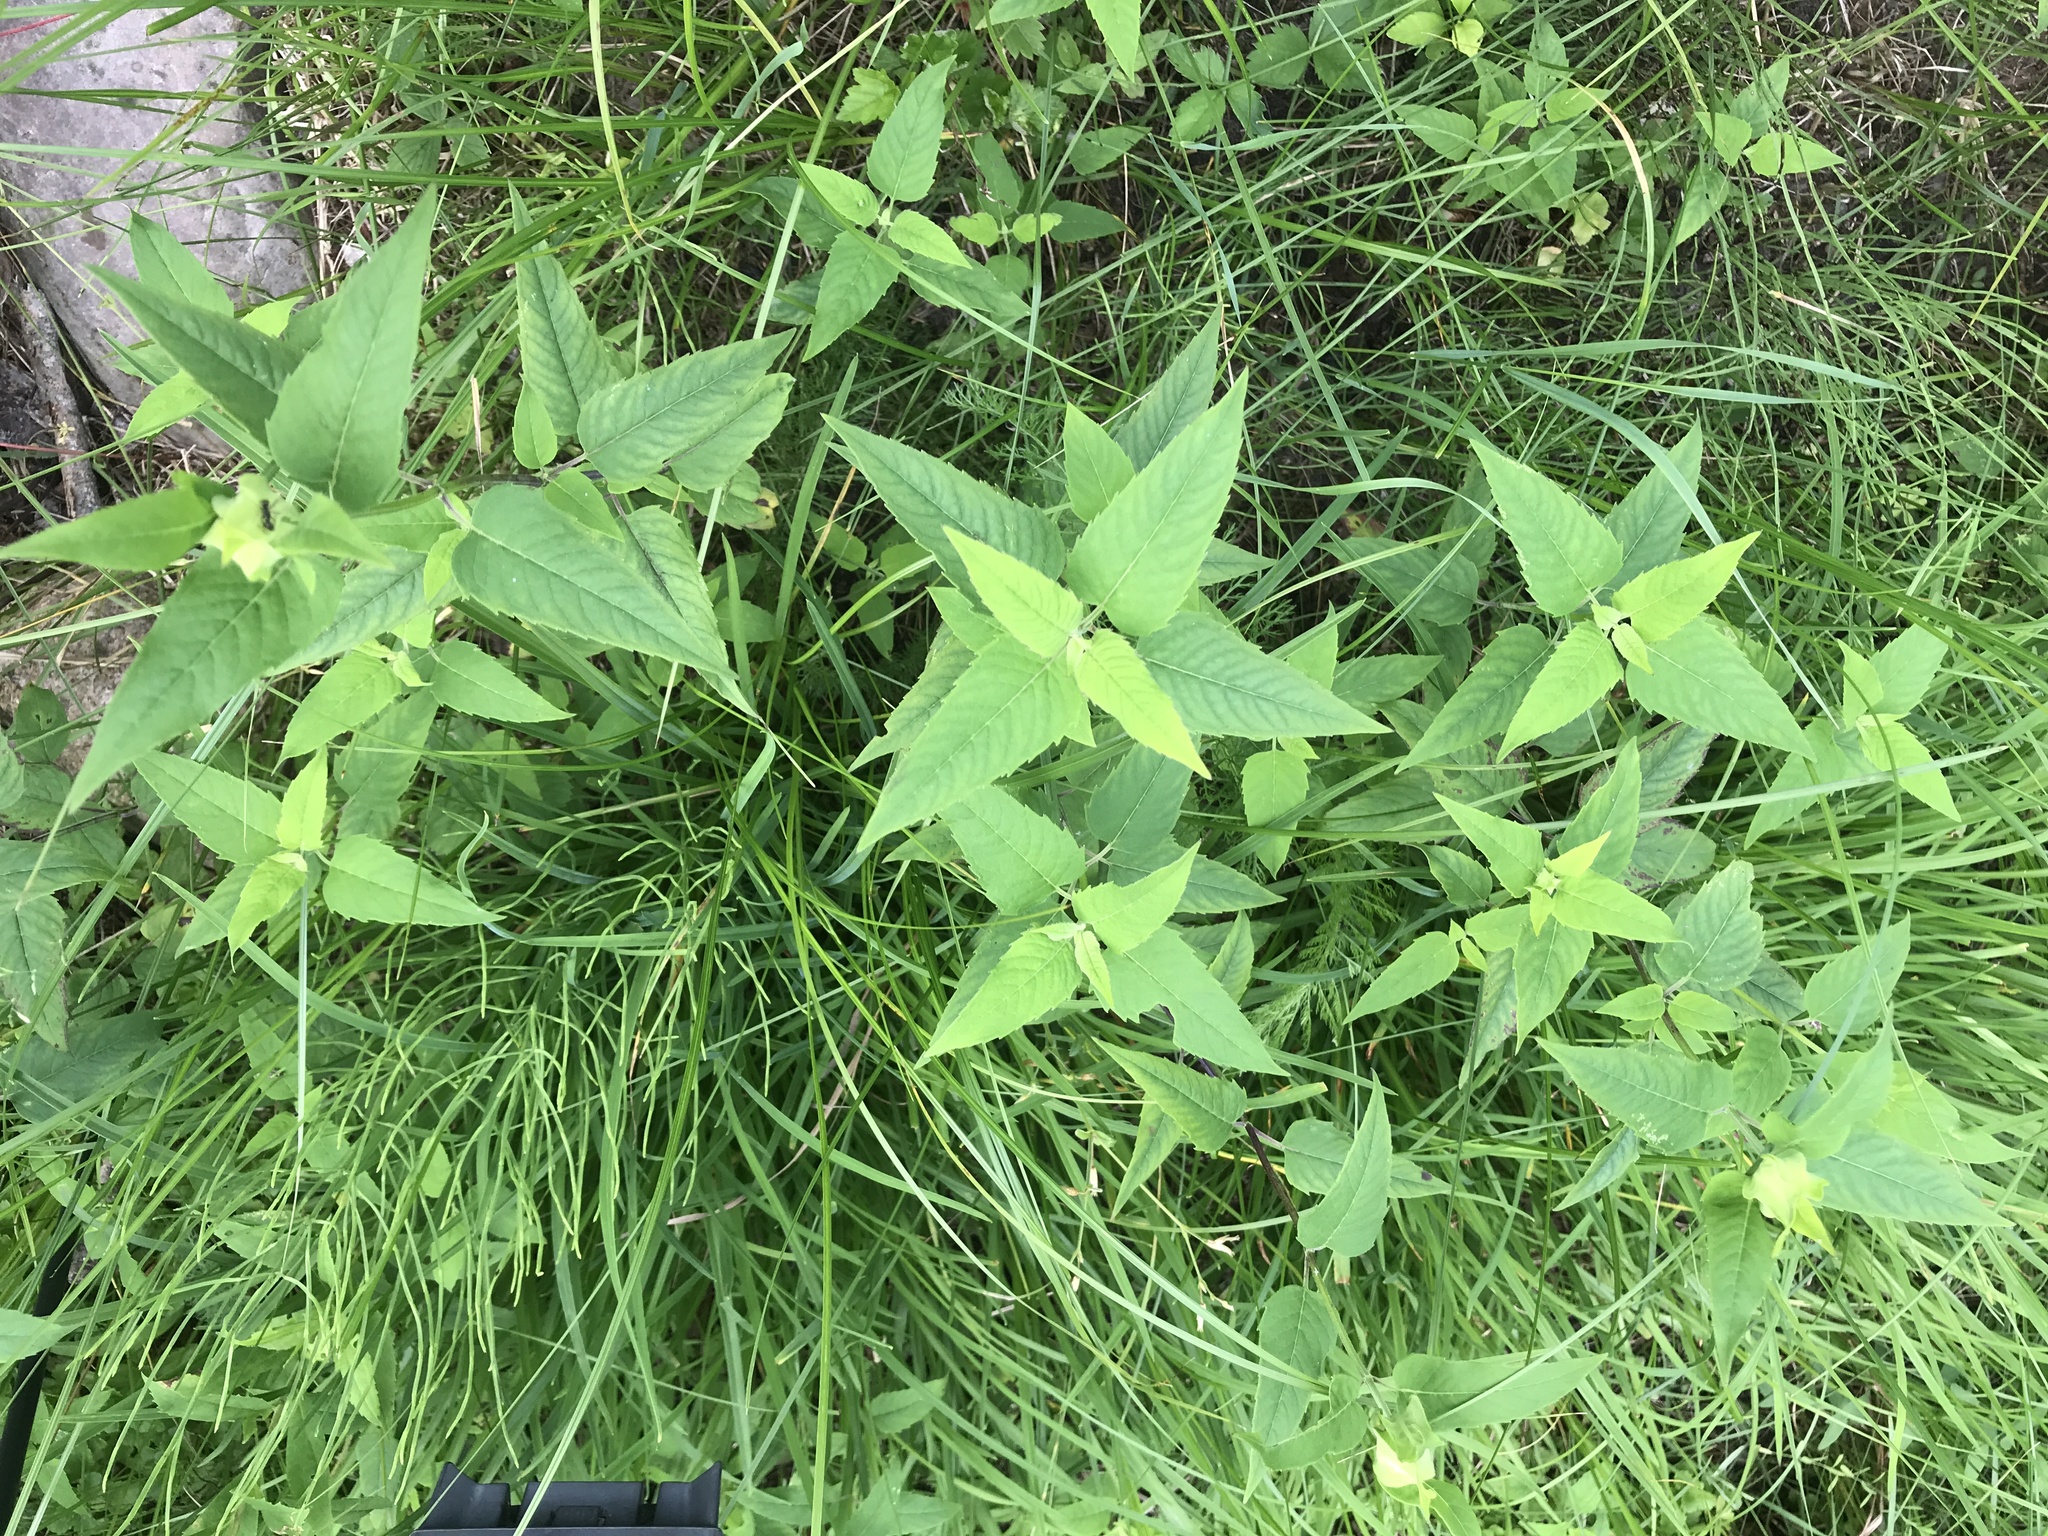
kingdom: Plantae
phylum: Tracheophyta
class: Magnoliopsida
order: Lamiales
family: Lamiaceae
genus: Monarda
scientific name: Monarda fistulosa
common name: Purple beebalm
